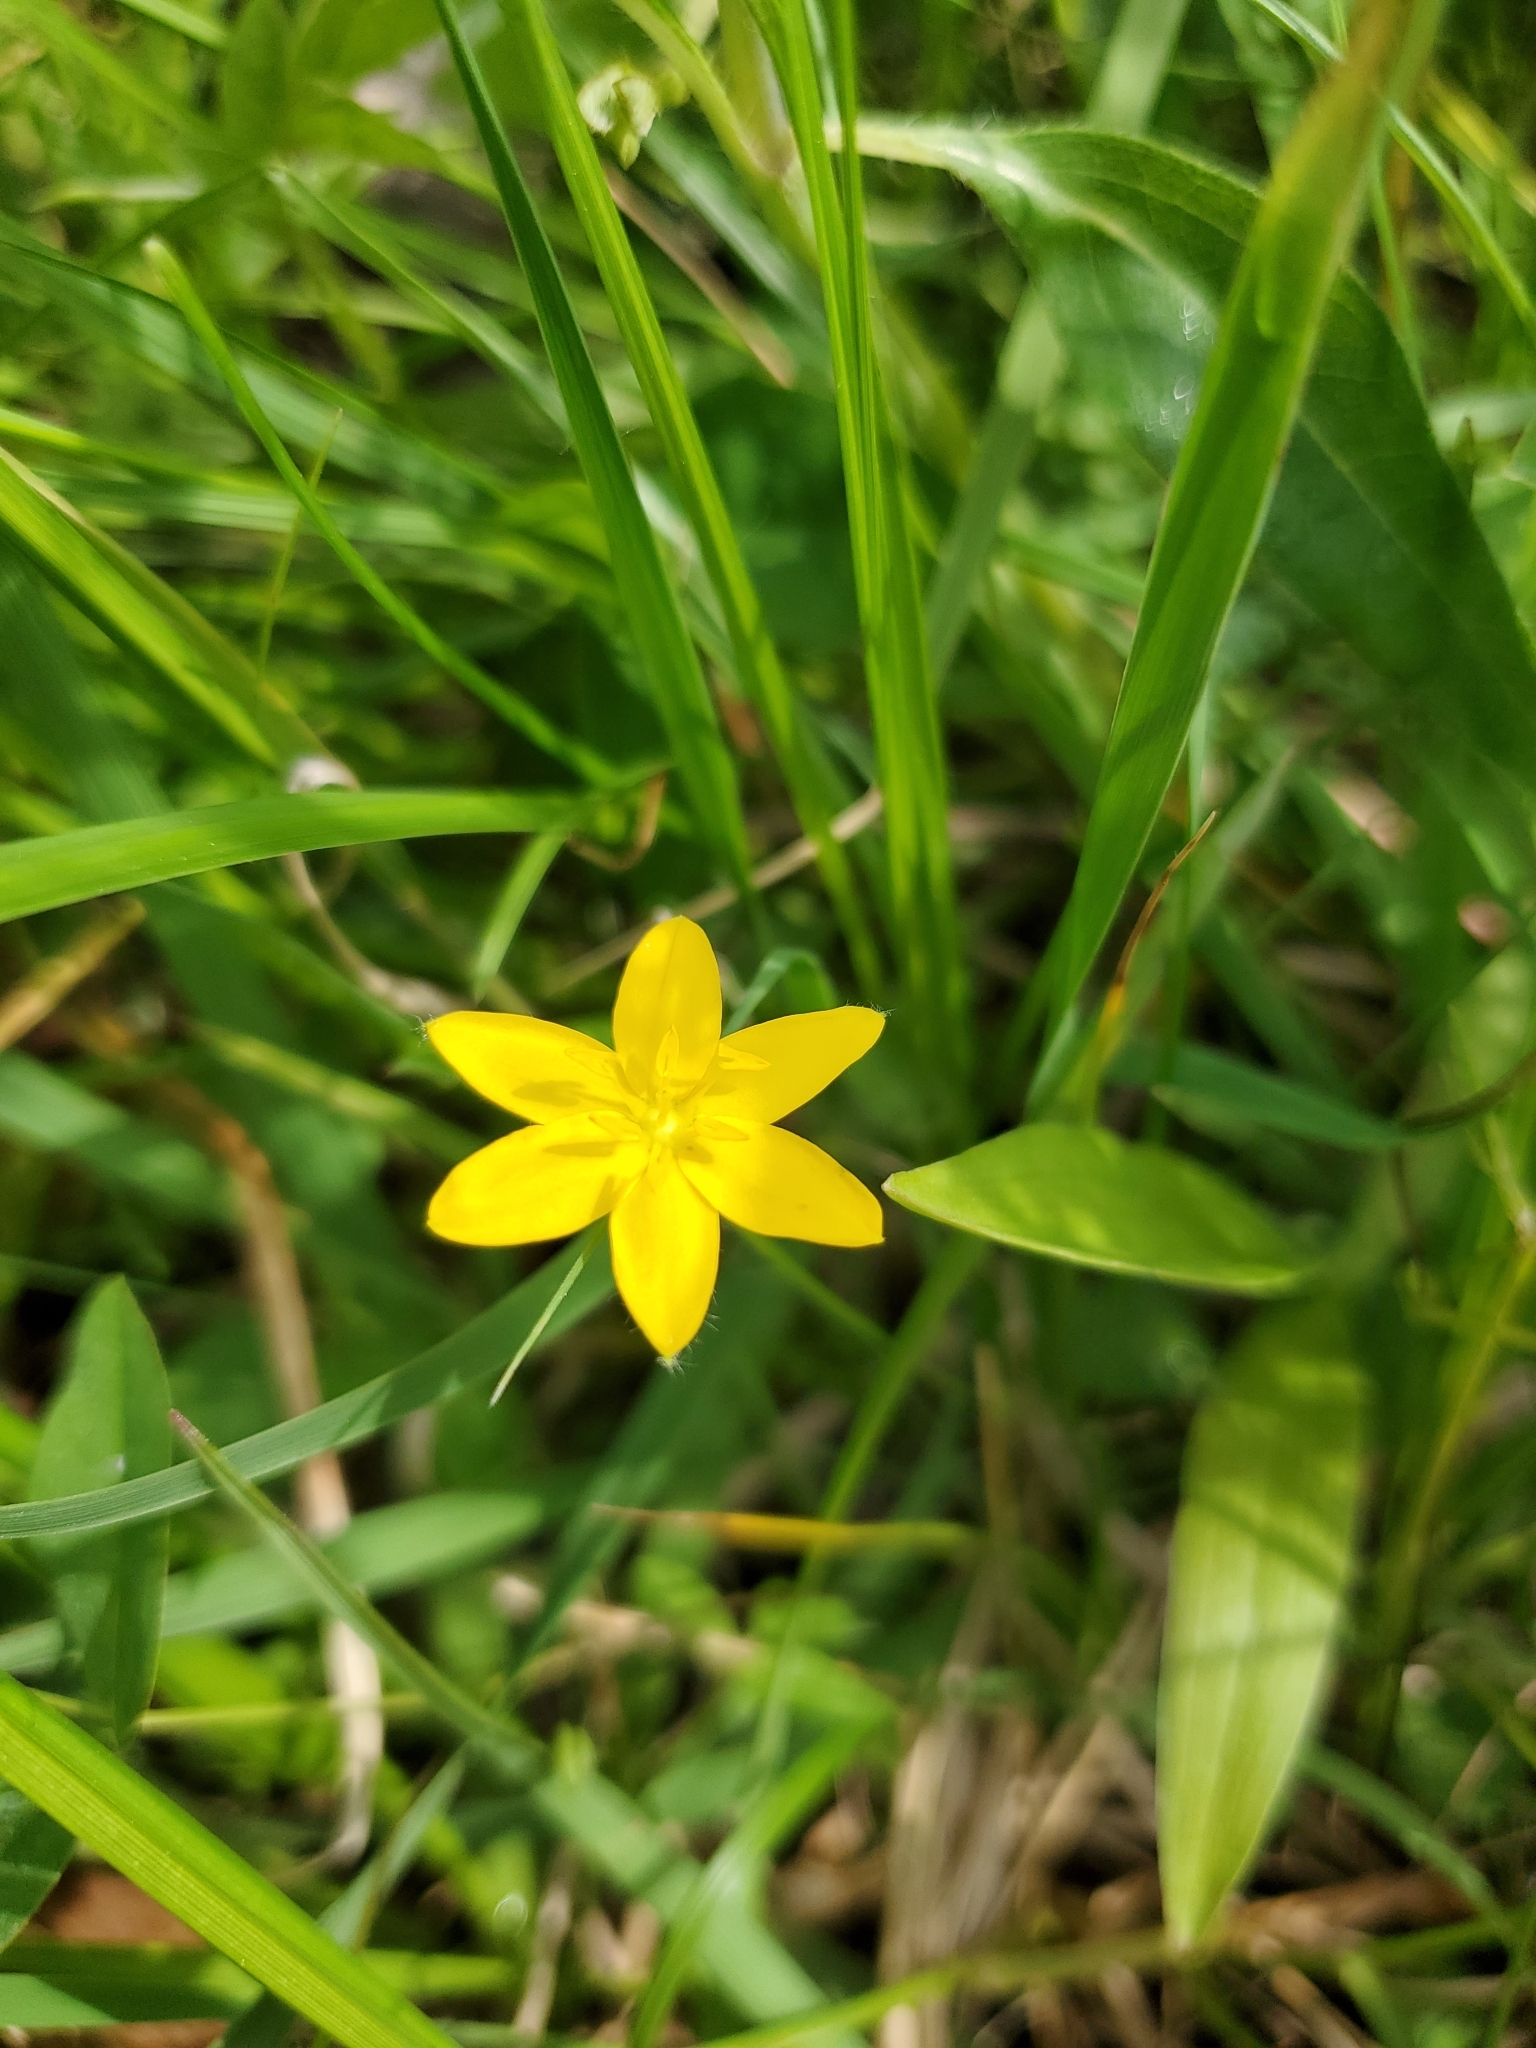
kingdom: Plantae
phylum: Tracheophyta
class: Liliopsida
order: Asparagales
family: Hypoxidaceae
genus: Hypoxis
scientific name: Hypoxis hirsuta
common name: Common goldstar
